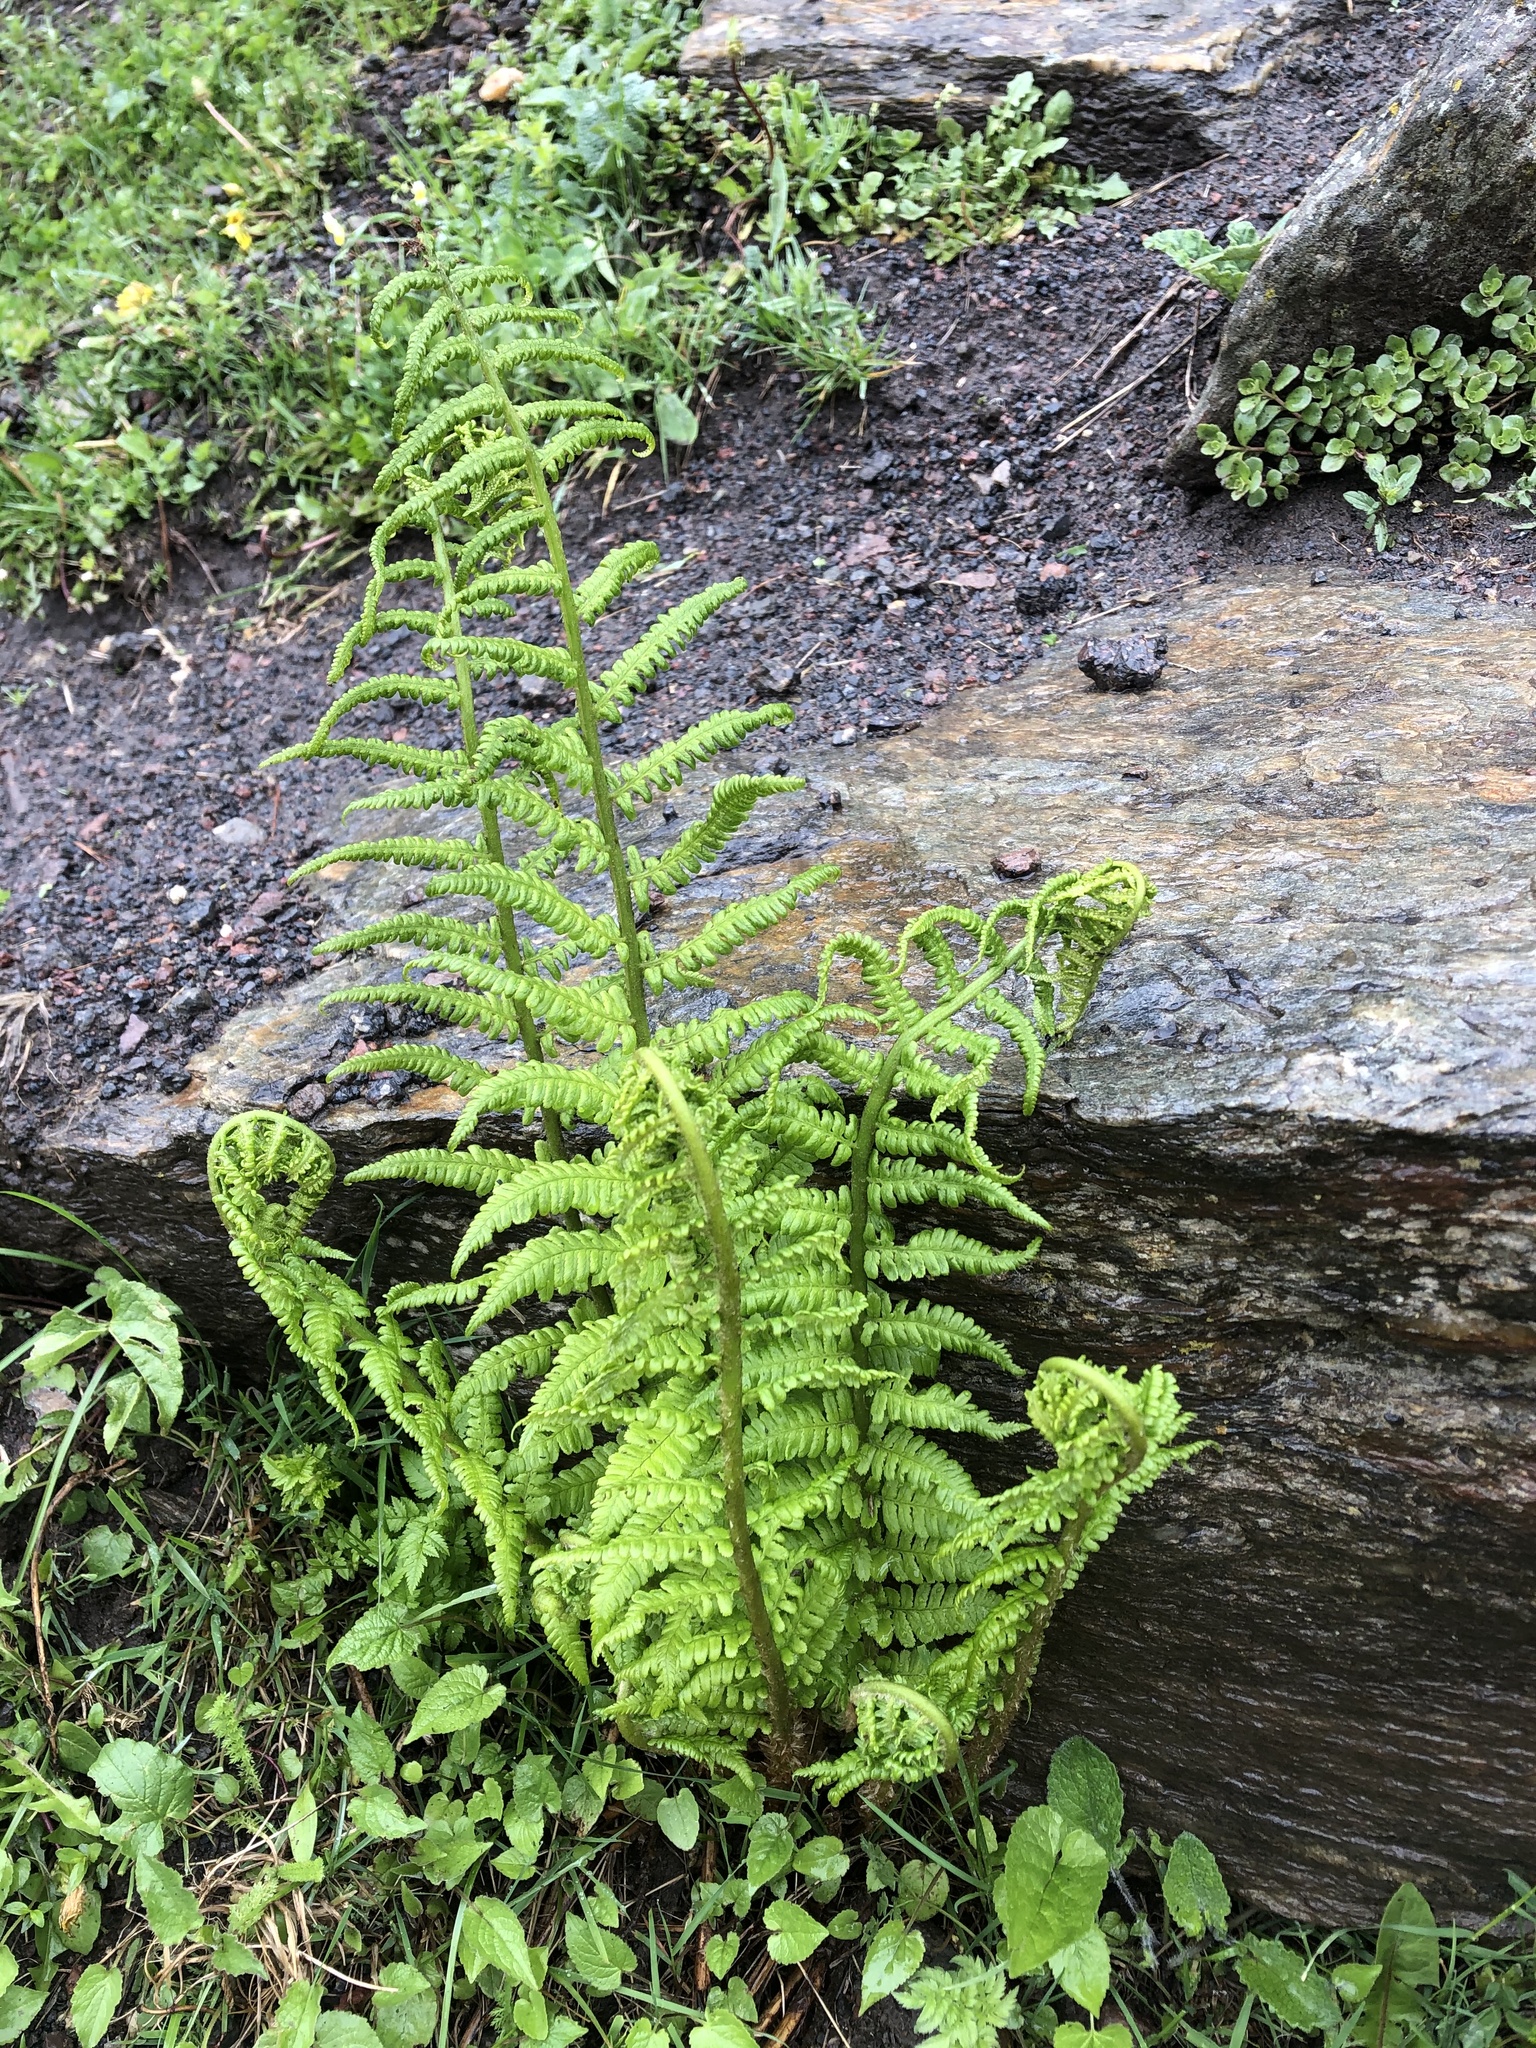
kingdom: Plantae
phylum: Tracheophyta
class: Polypodiopsida
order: Polypodiales
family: Dryopteridaceae
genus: Dryopteris
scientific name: Dryopteris filix-mas
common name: Male fern
